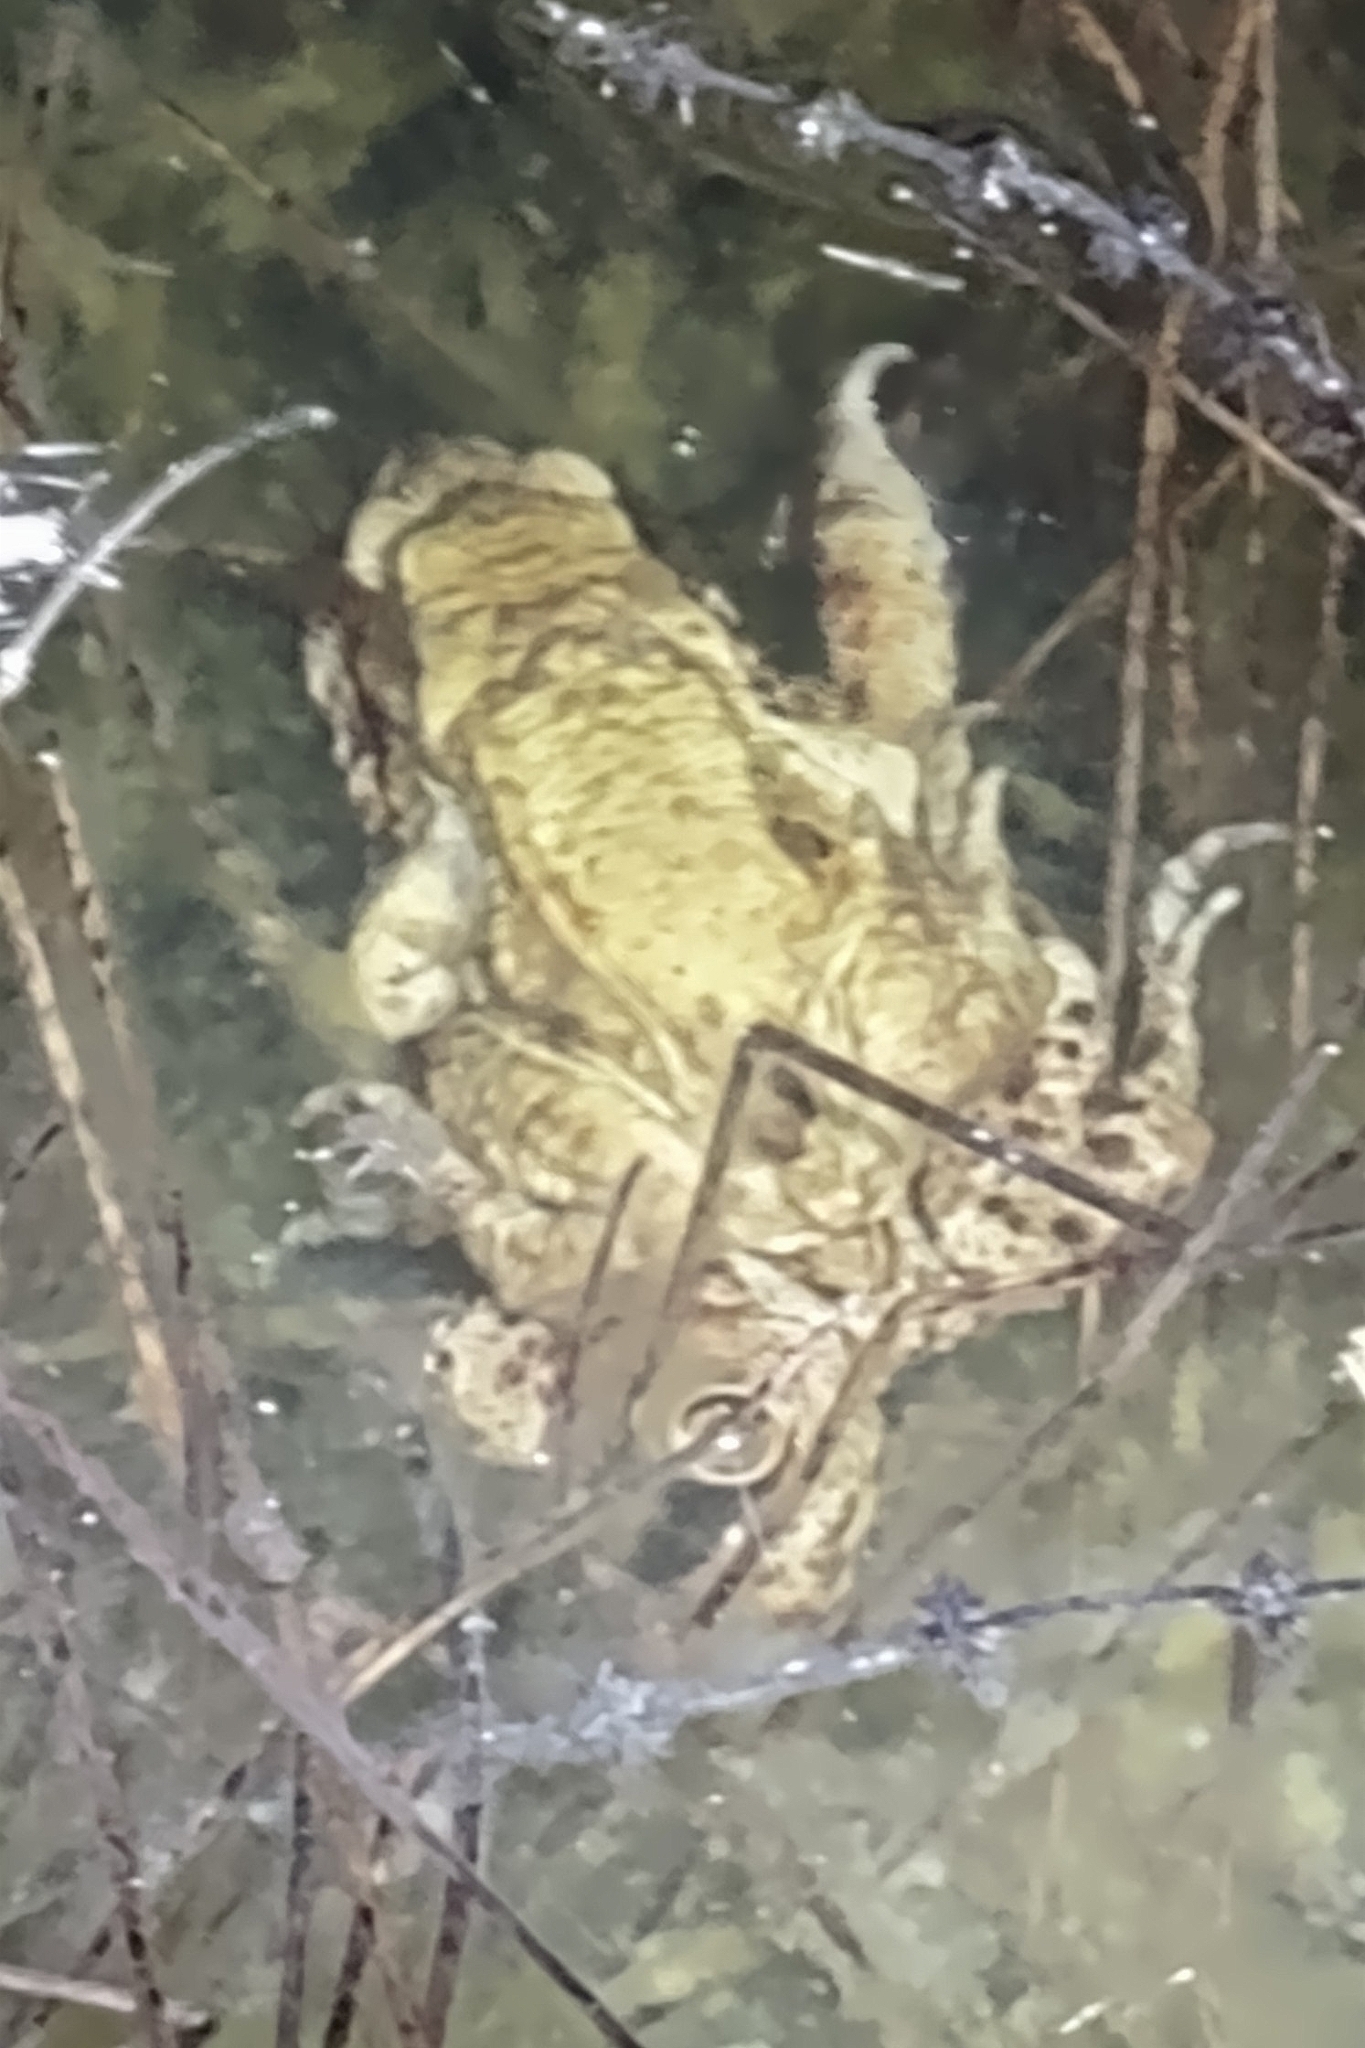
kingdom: Animalia
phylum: Chordata
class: Amphibia
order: Anura
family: Bufonidae
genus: Bufo
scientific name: Bufo bufo
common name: Common toad
